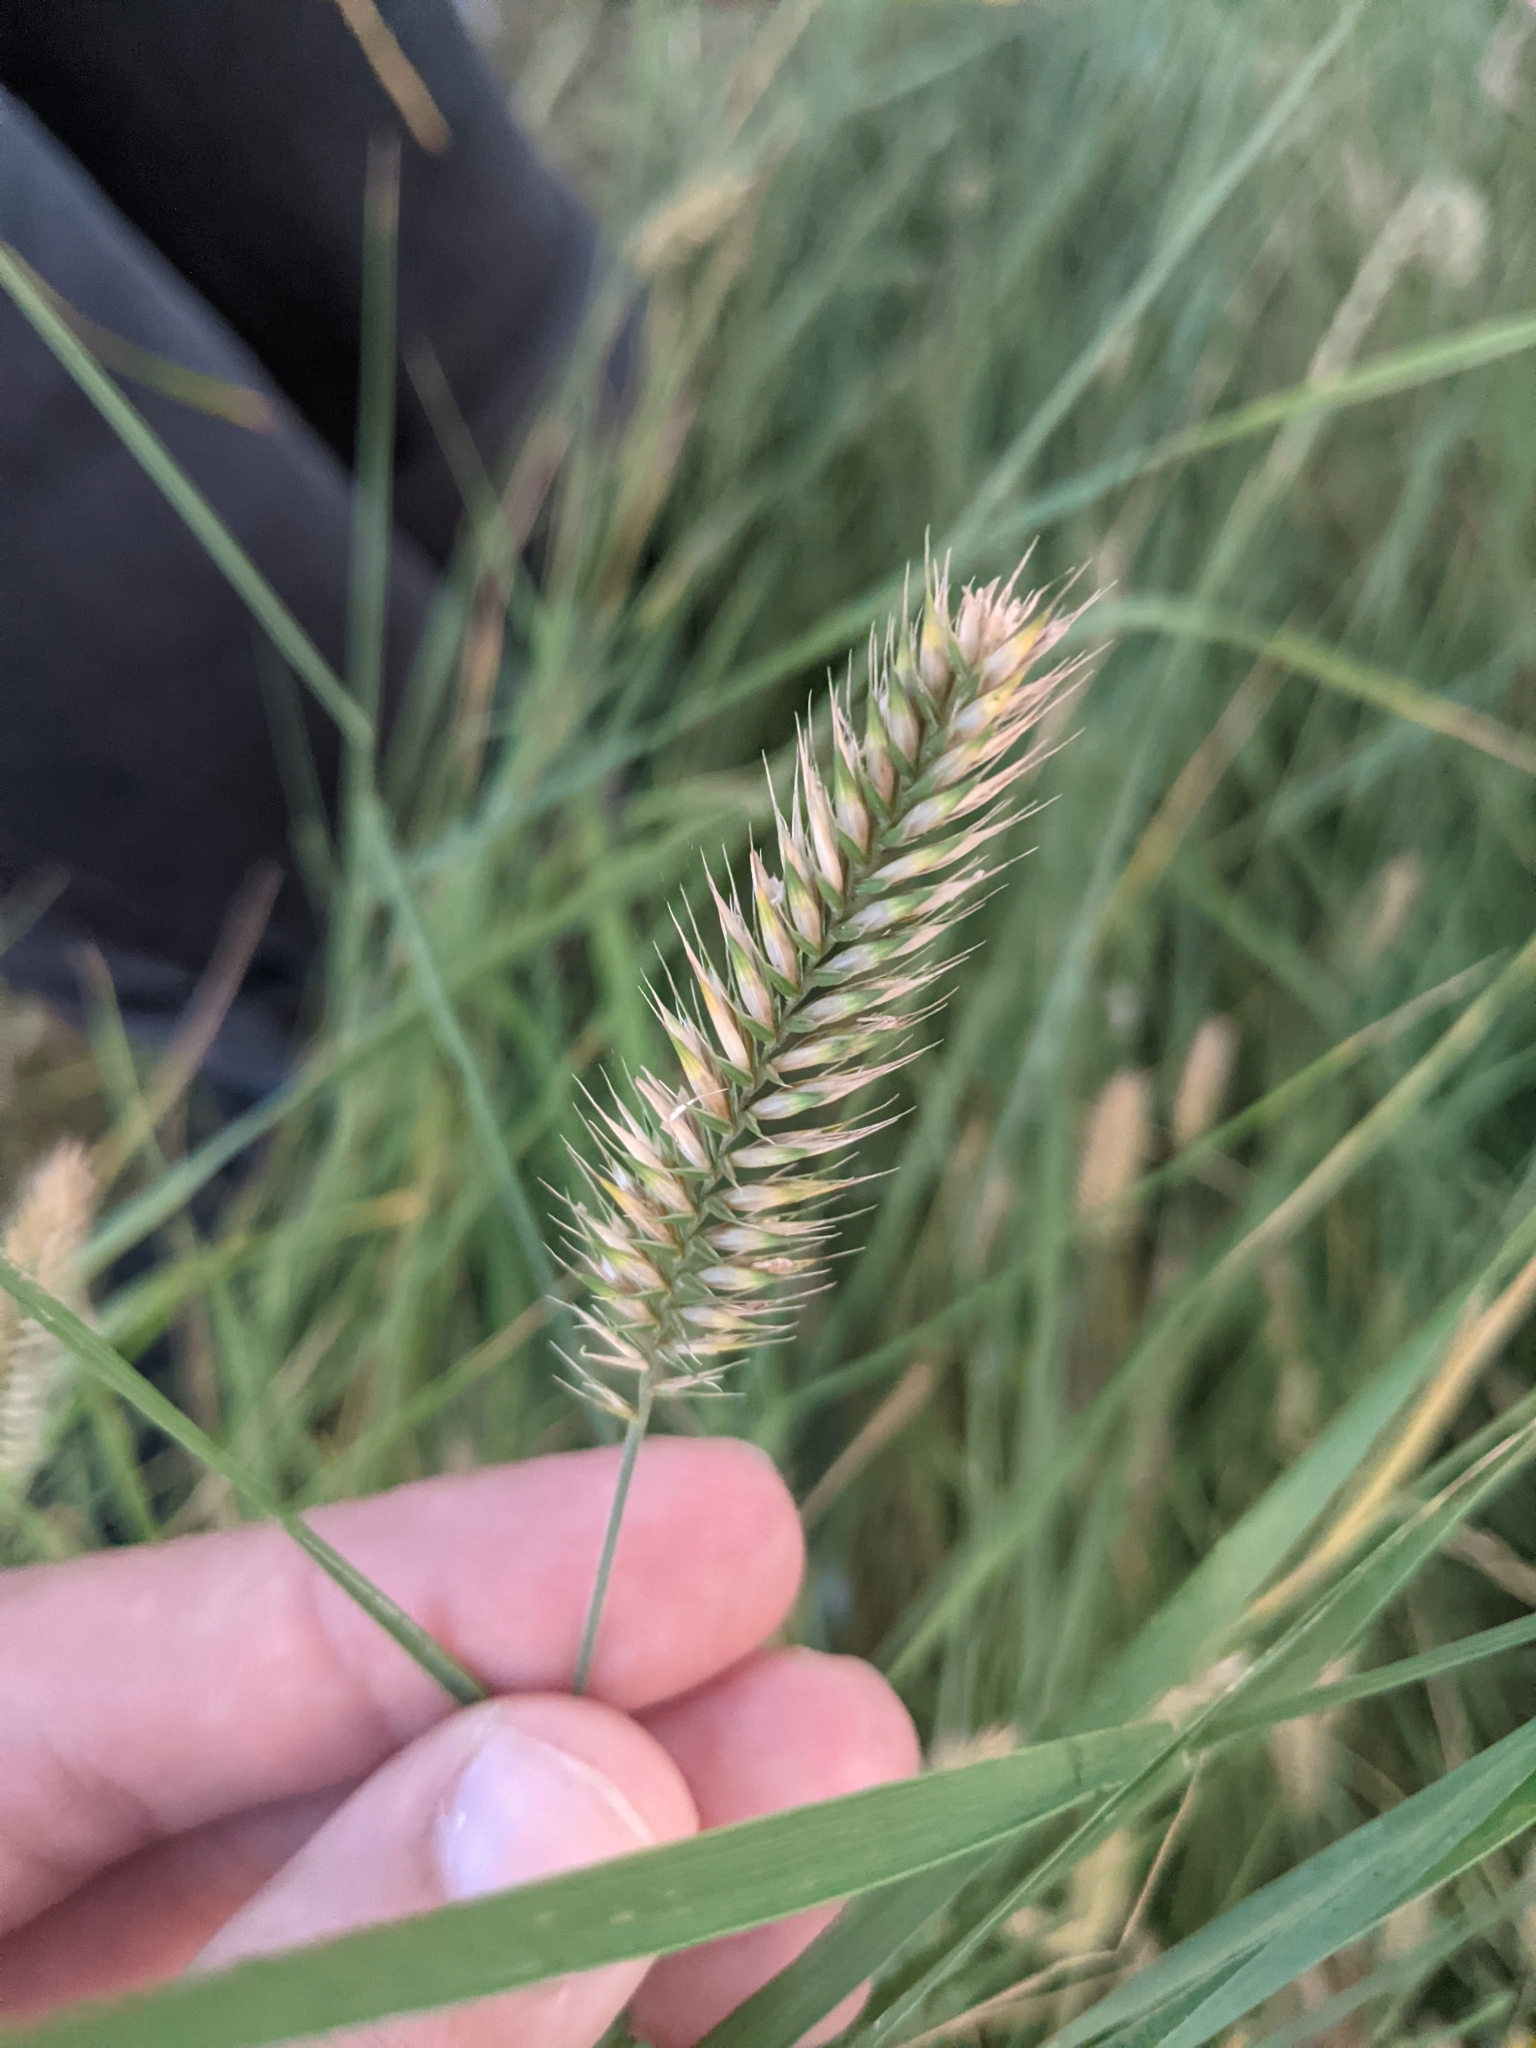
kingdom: Plantae
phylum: Tracheophyta
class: Liliopsida
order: Poales
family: Poaceae
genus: Agropyron
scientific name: Agropyron cristatum
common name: Crested wheatgrass
